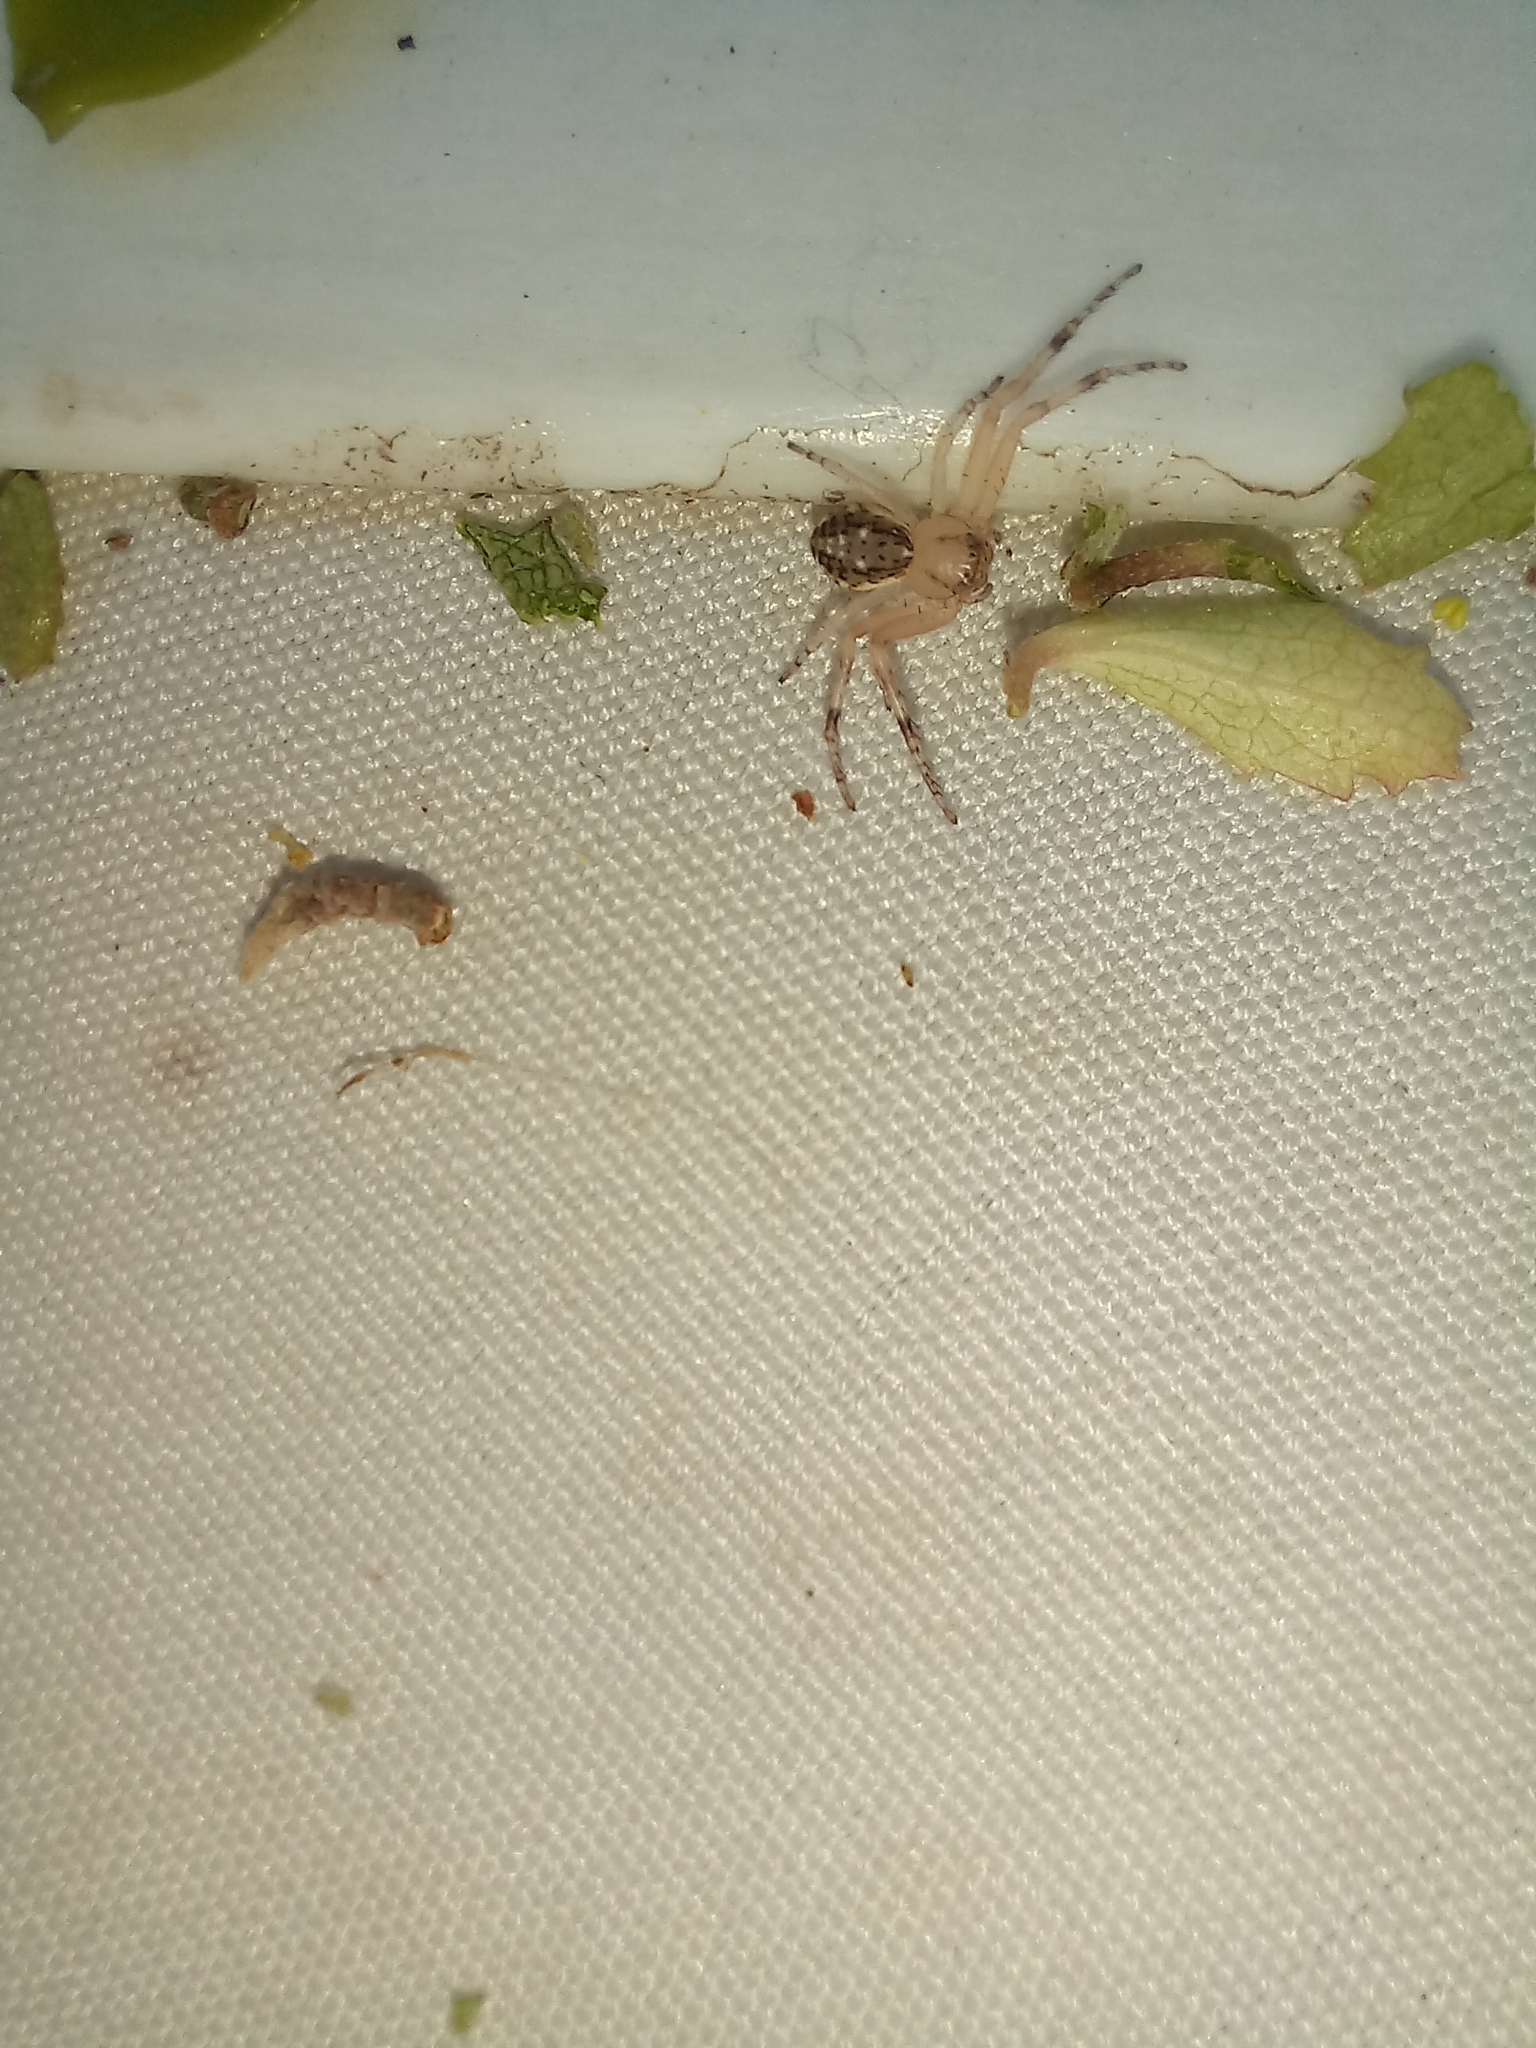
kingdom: Animalia
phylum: Arthropoda
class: Arachnida
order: Araneae
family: Thomisidae
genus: Diaea
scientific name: Diaea ambara
